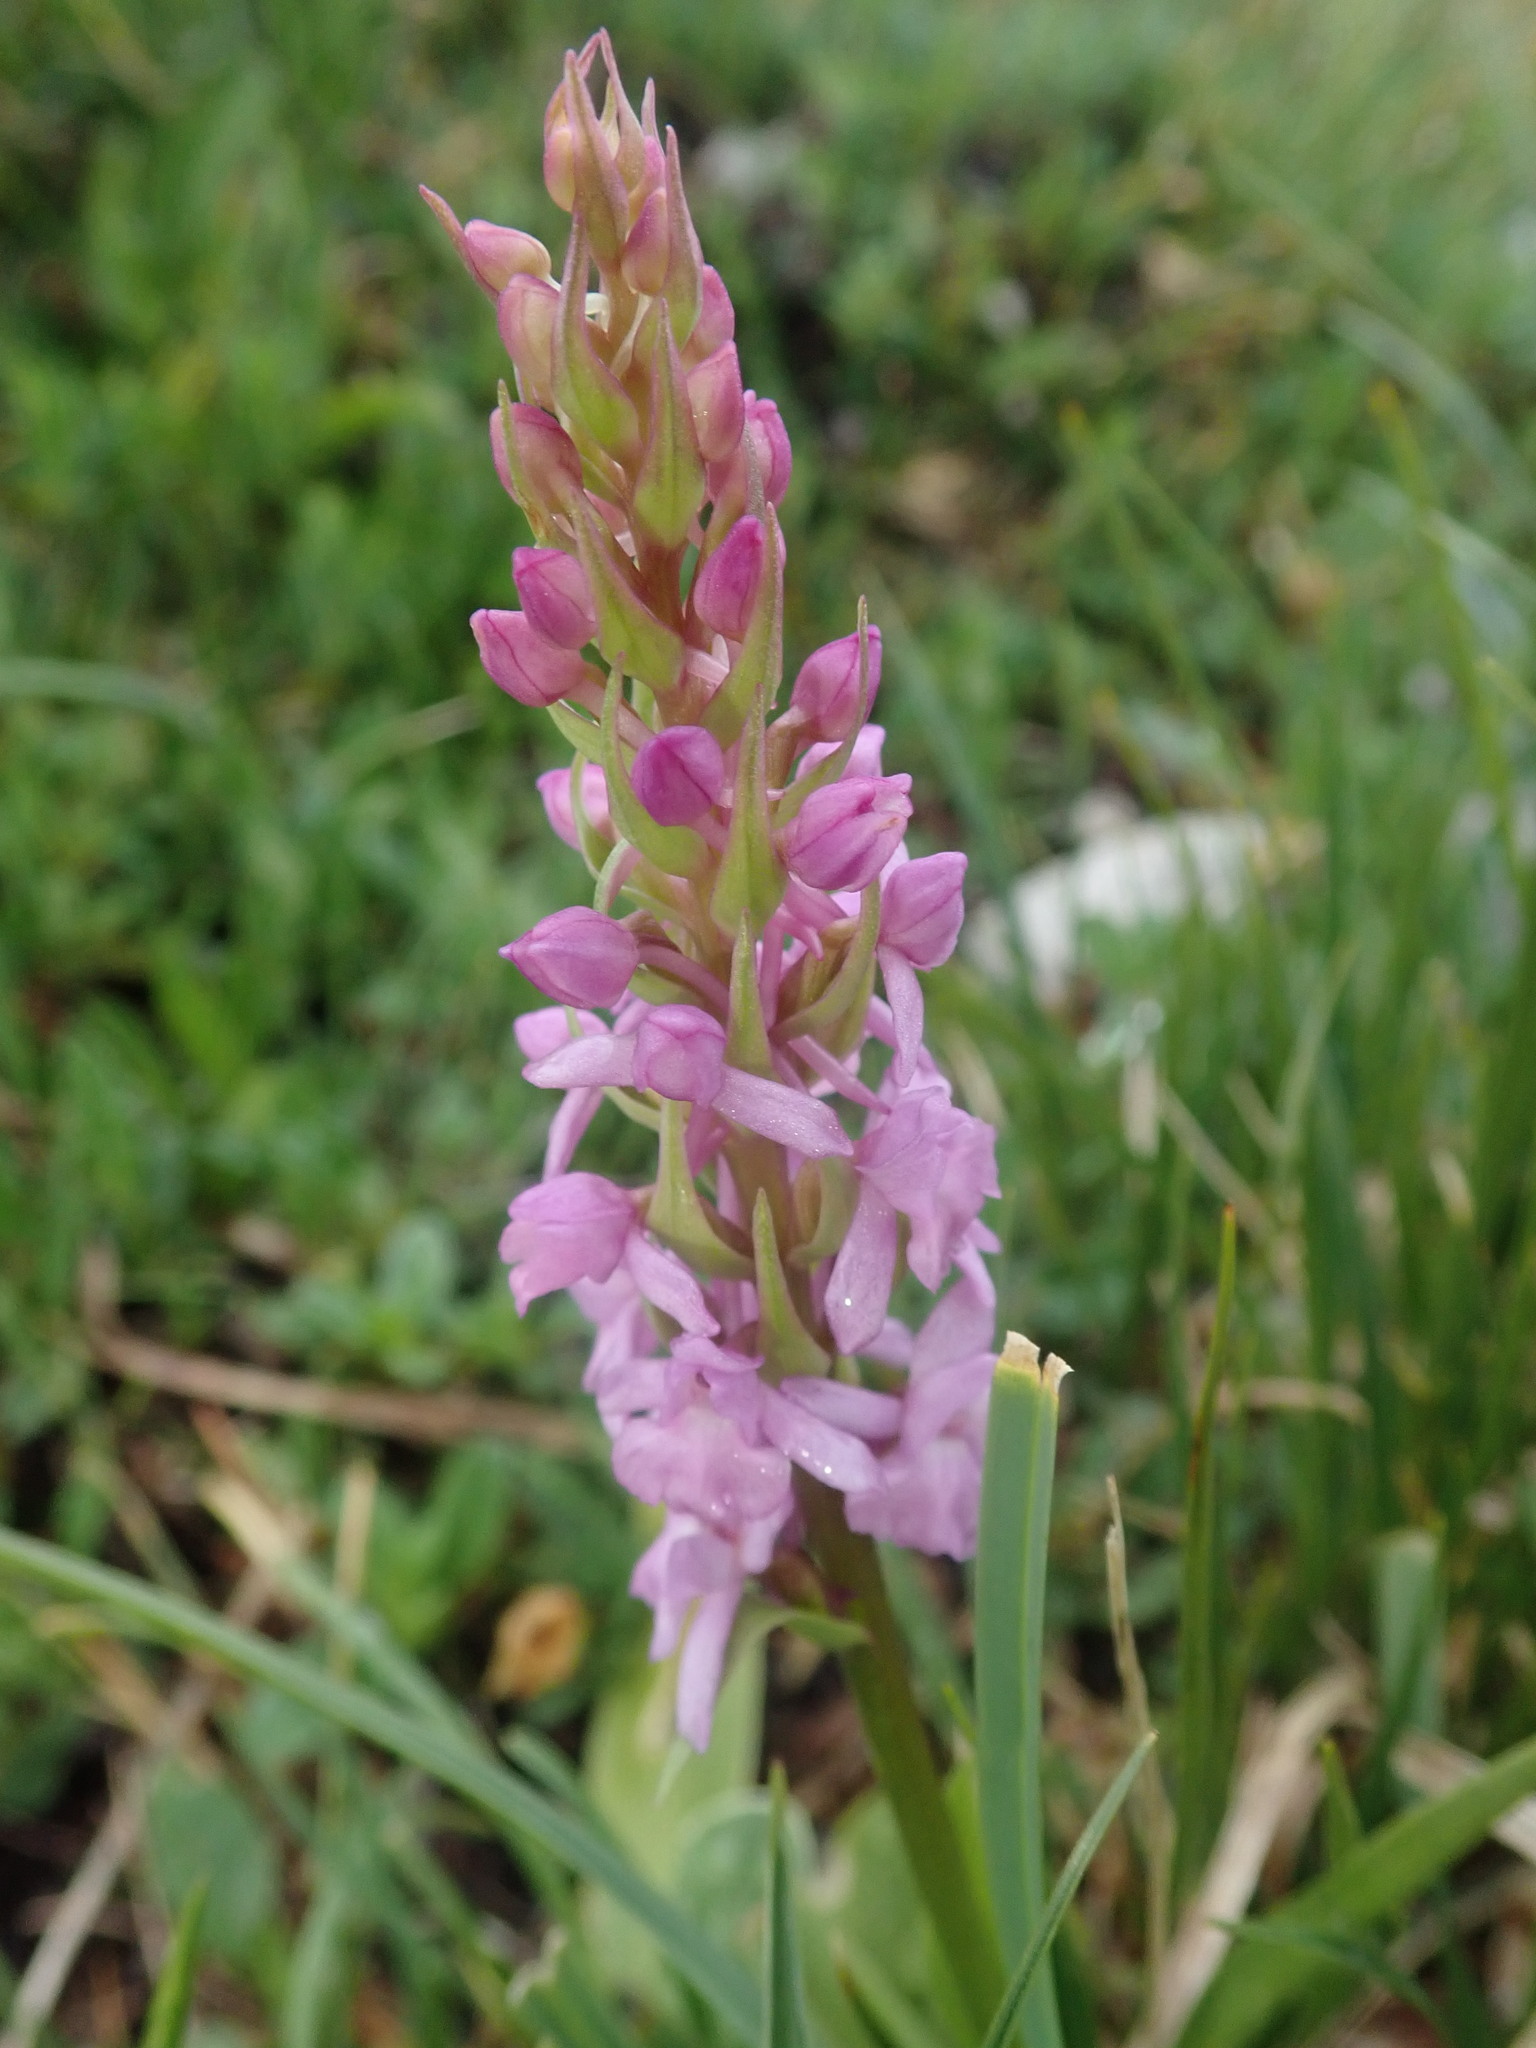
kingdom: Plantae
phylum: Tracheophyta
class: Liliopsida
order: Asparagales
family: Orchidaceae
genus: Gymnadenia
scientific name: Gymnadenia conopsea
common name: Fragrant orchid
